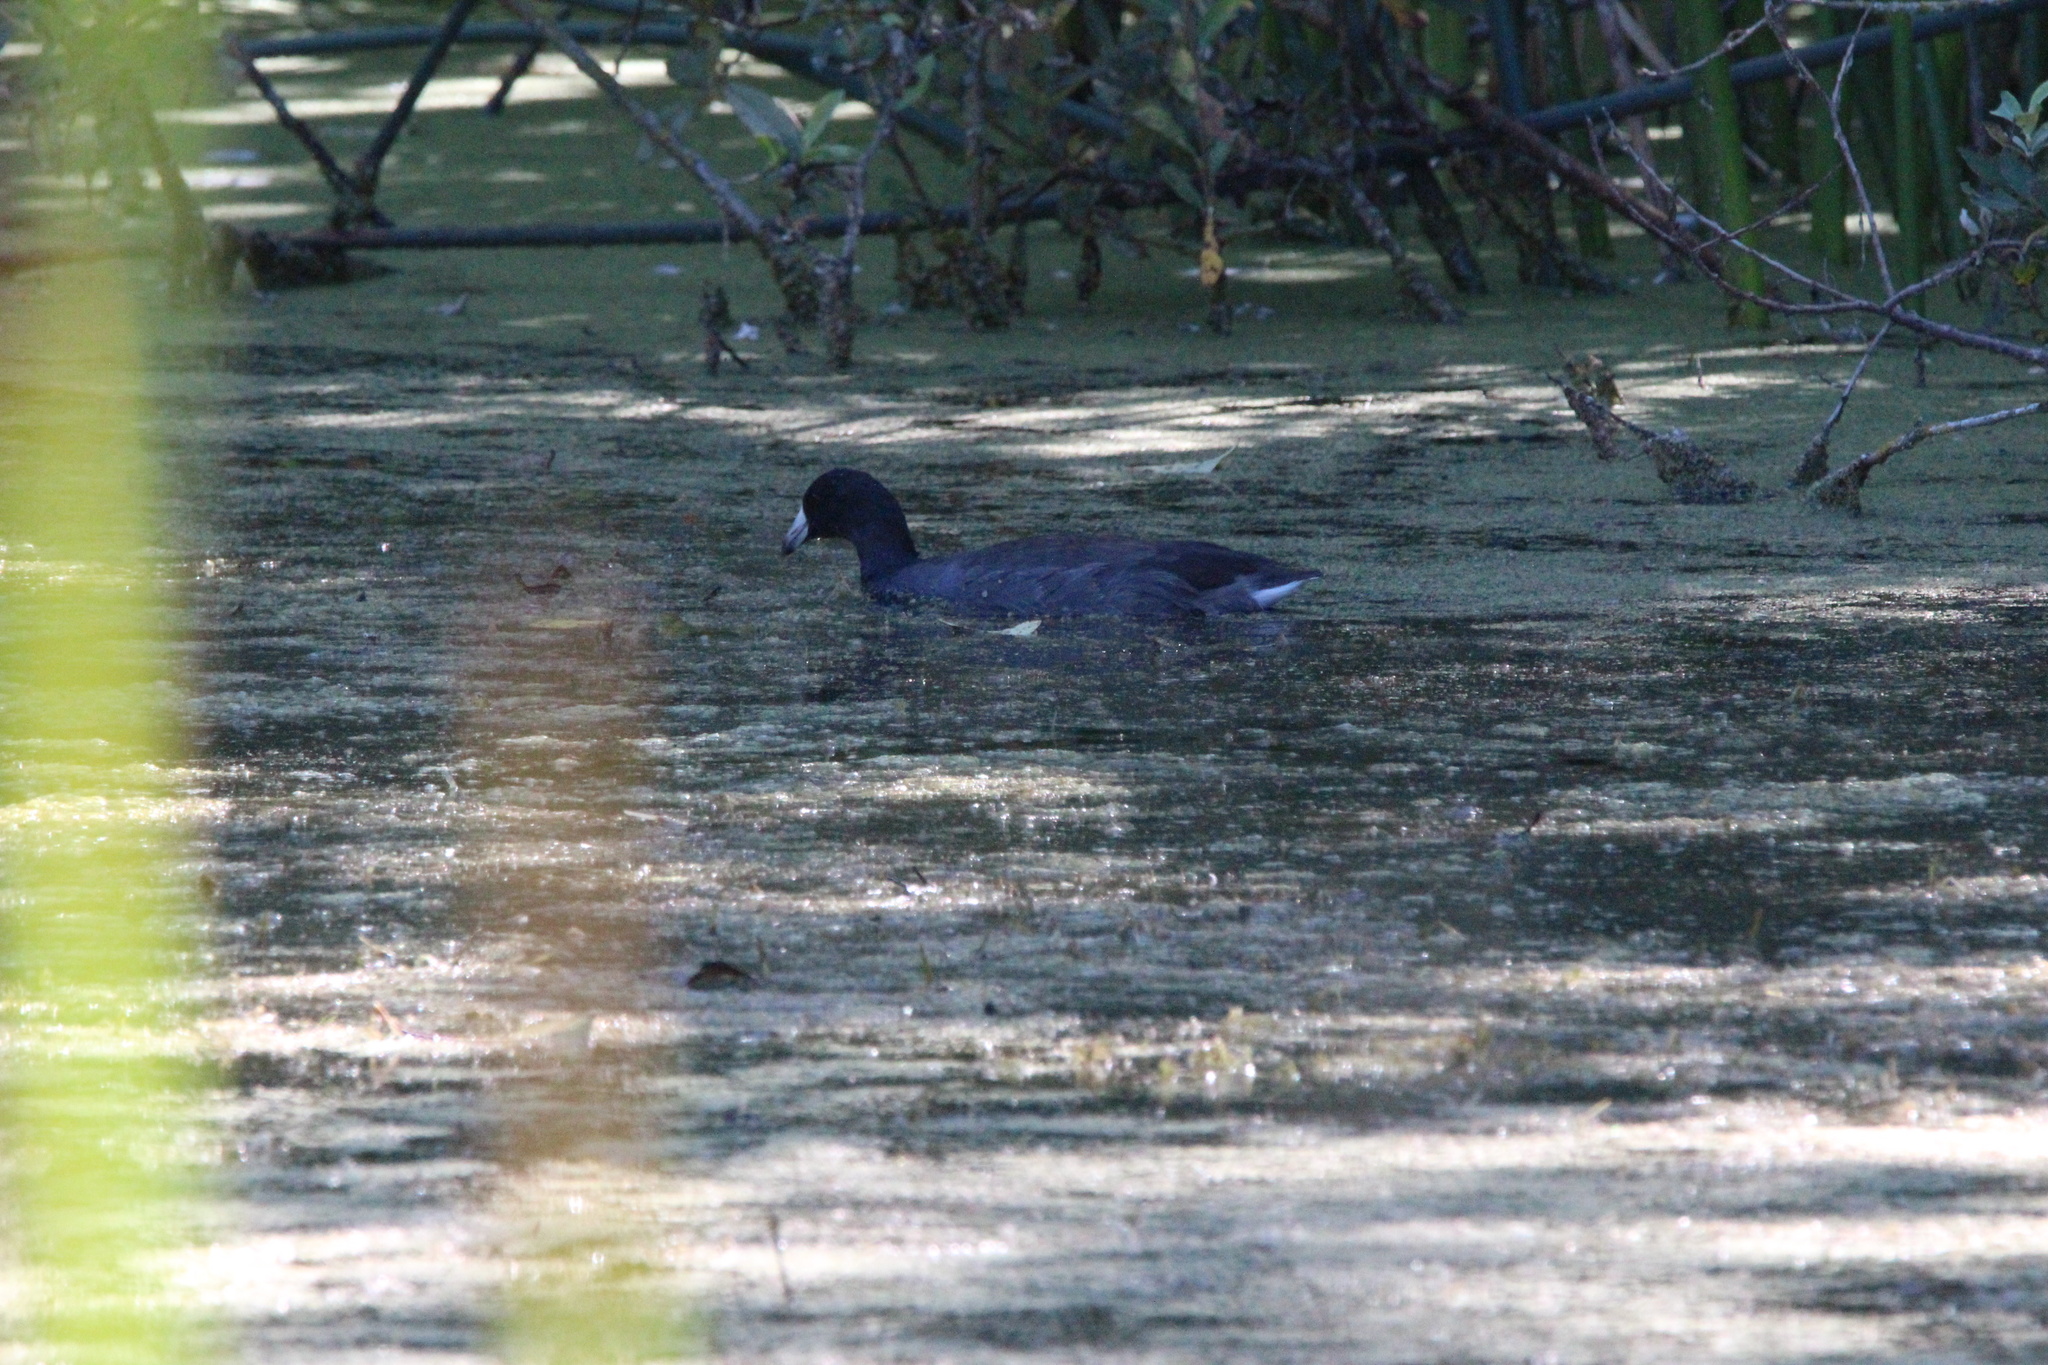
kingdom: Animalia
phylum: Chordata
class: Aves
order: Gruiformes
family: Rallidae
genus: Fulica
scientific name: Fulica americana
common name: American coot
